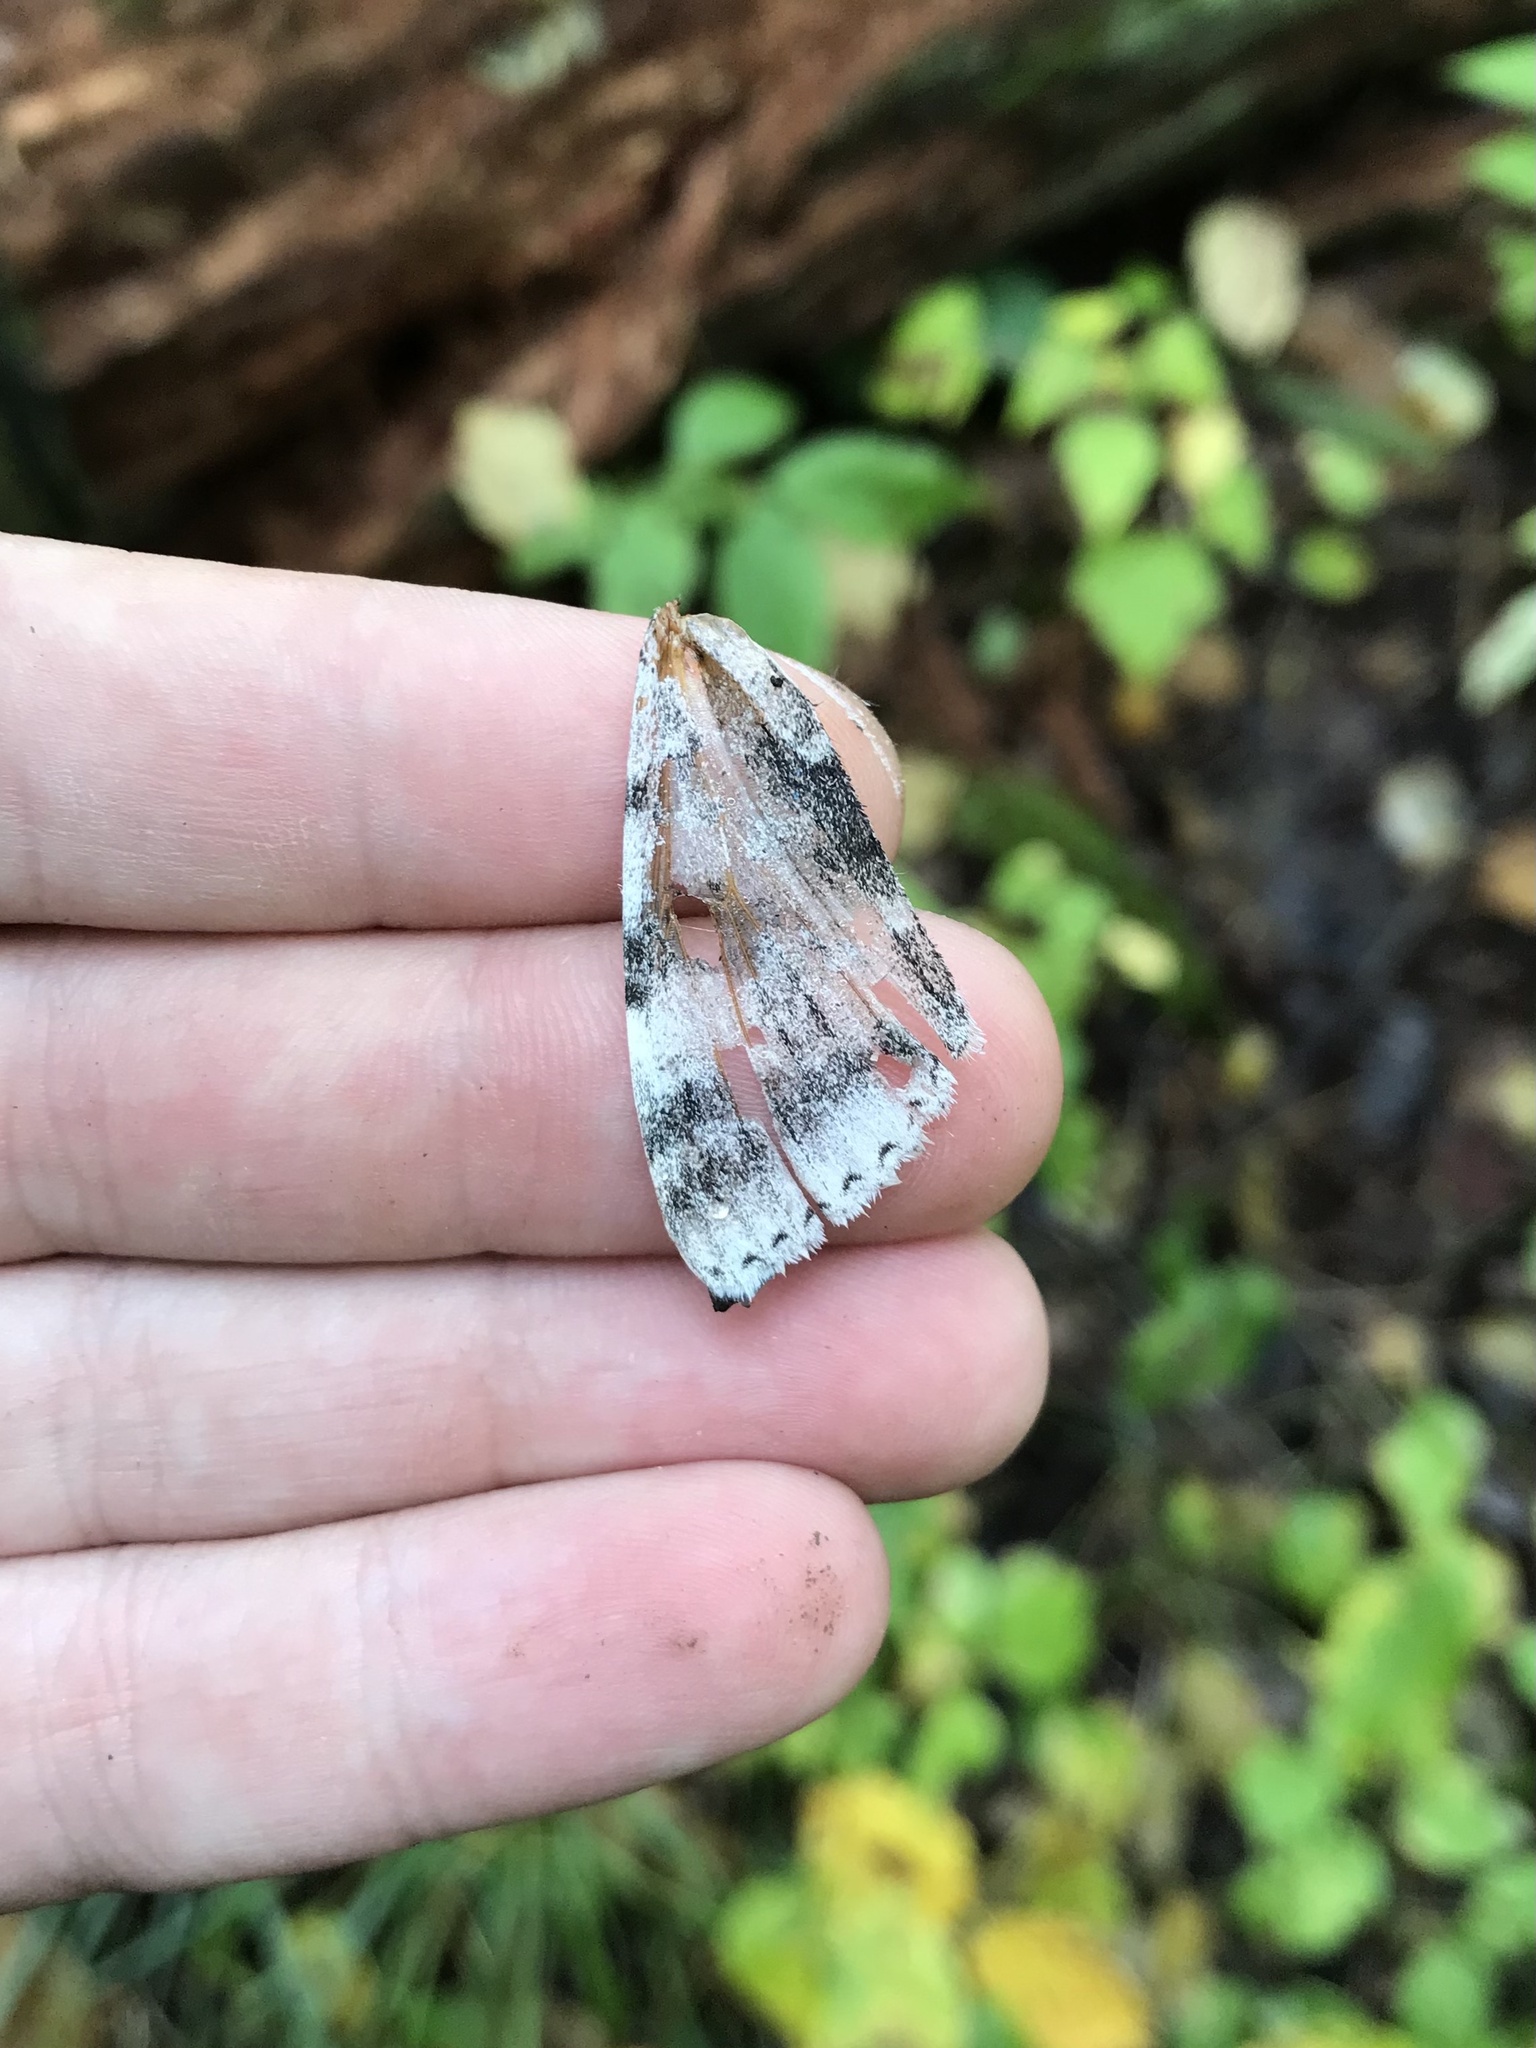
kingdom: Animalia
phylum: Arthropoda
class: Insecta
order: Lepidoptera
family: Erebidae
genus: Catocala
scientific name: Catocala relicta
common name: White underwing
